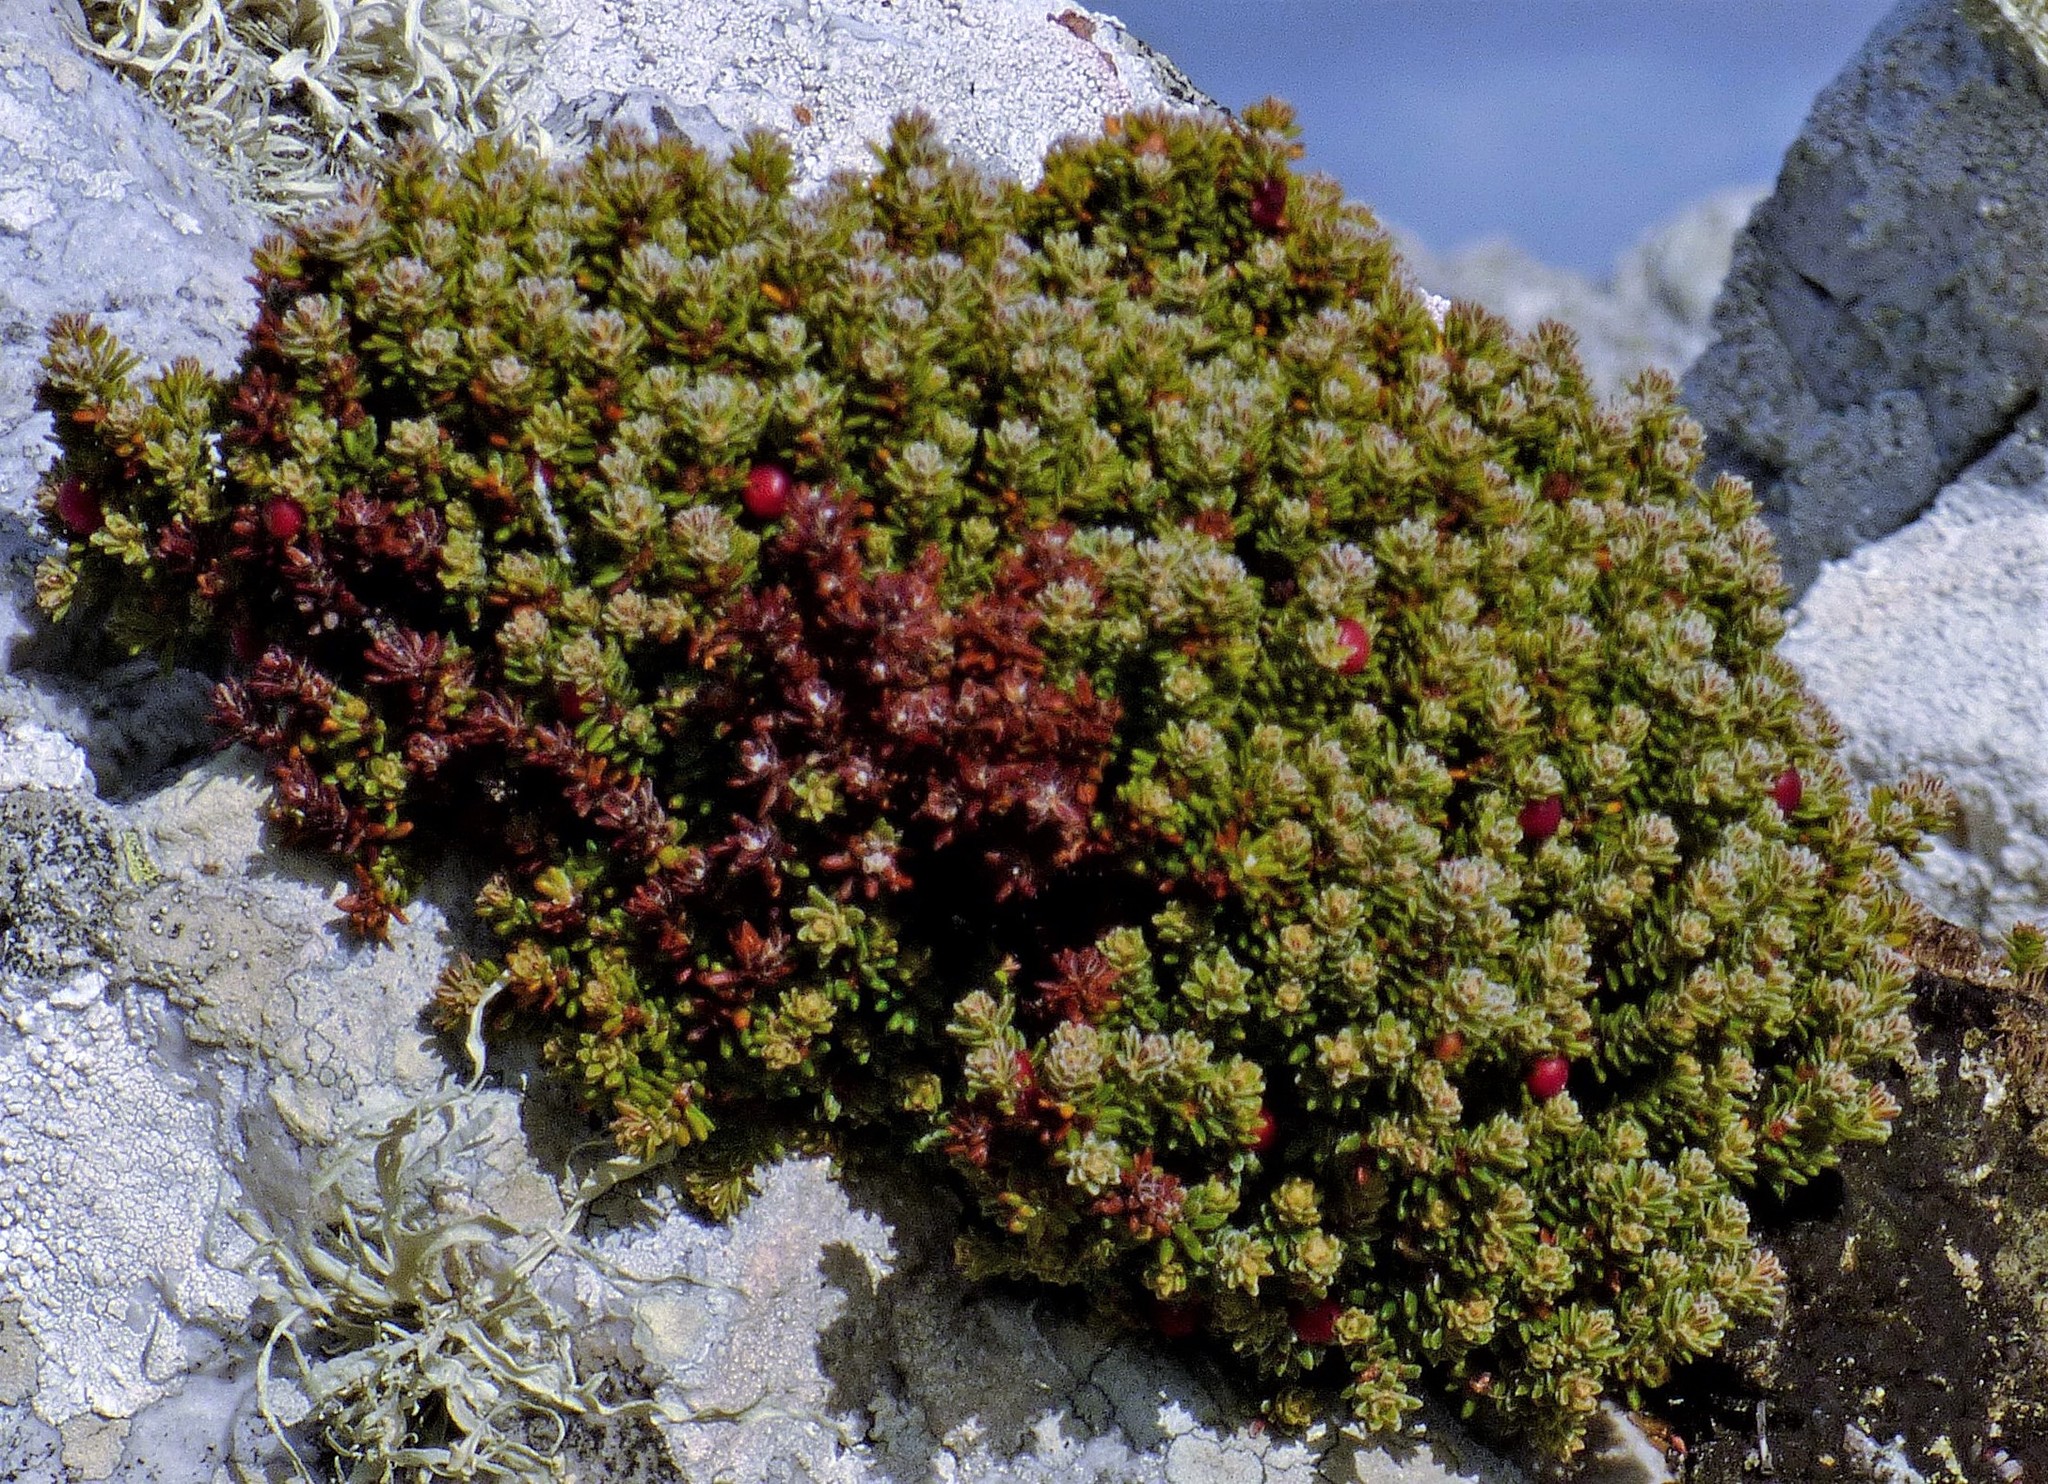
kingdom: Plantae
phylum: Tracheophyta
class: Magnoliopsida
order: Ericales
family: Ericaceae
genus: Empetrum
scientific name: Empetrum rubrum
